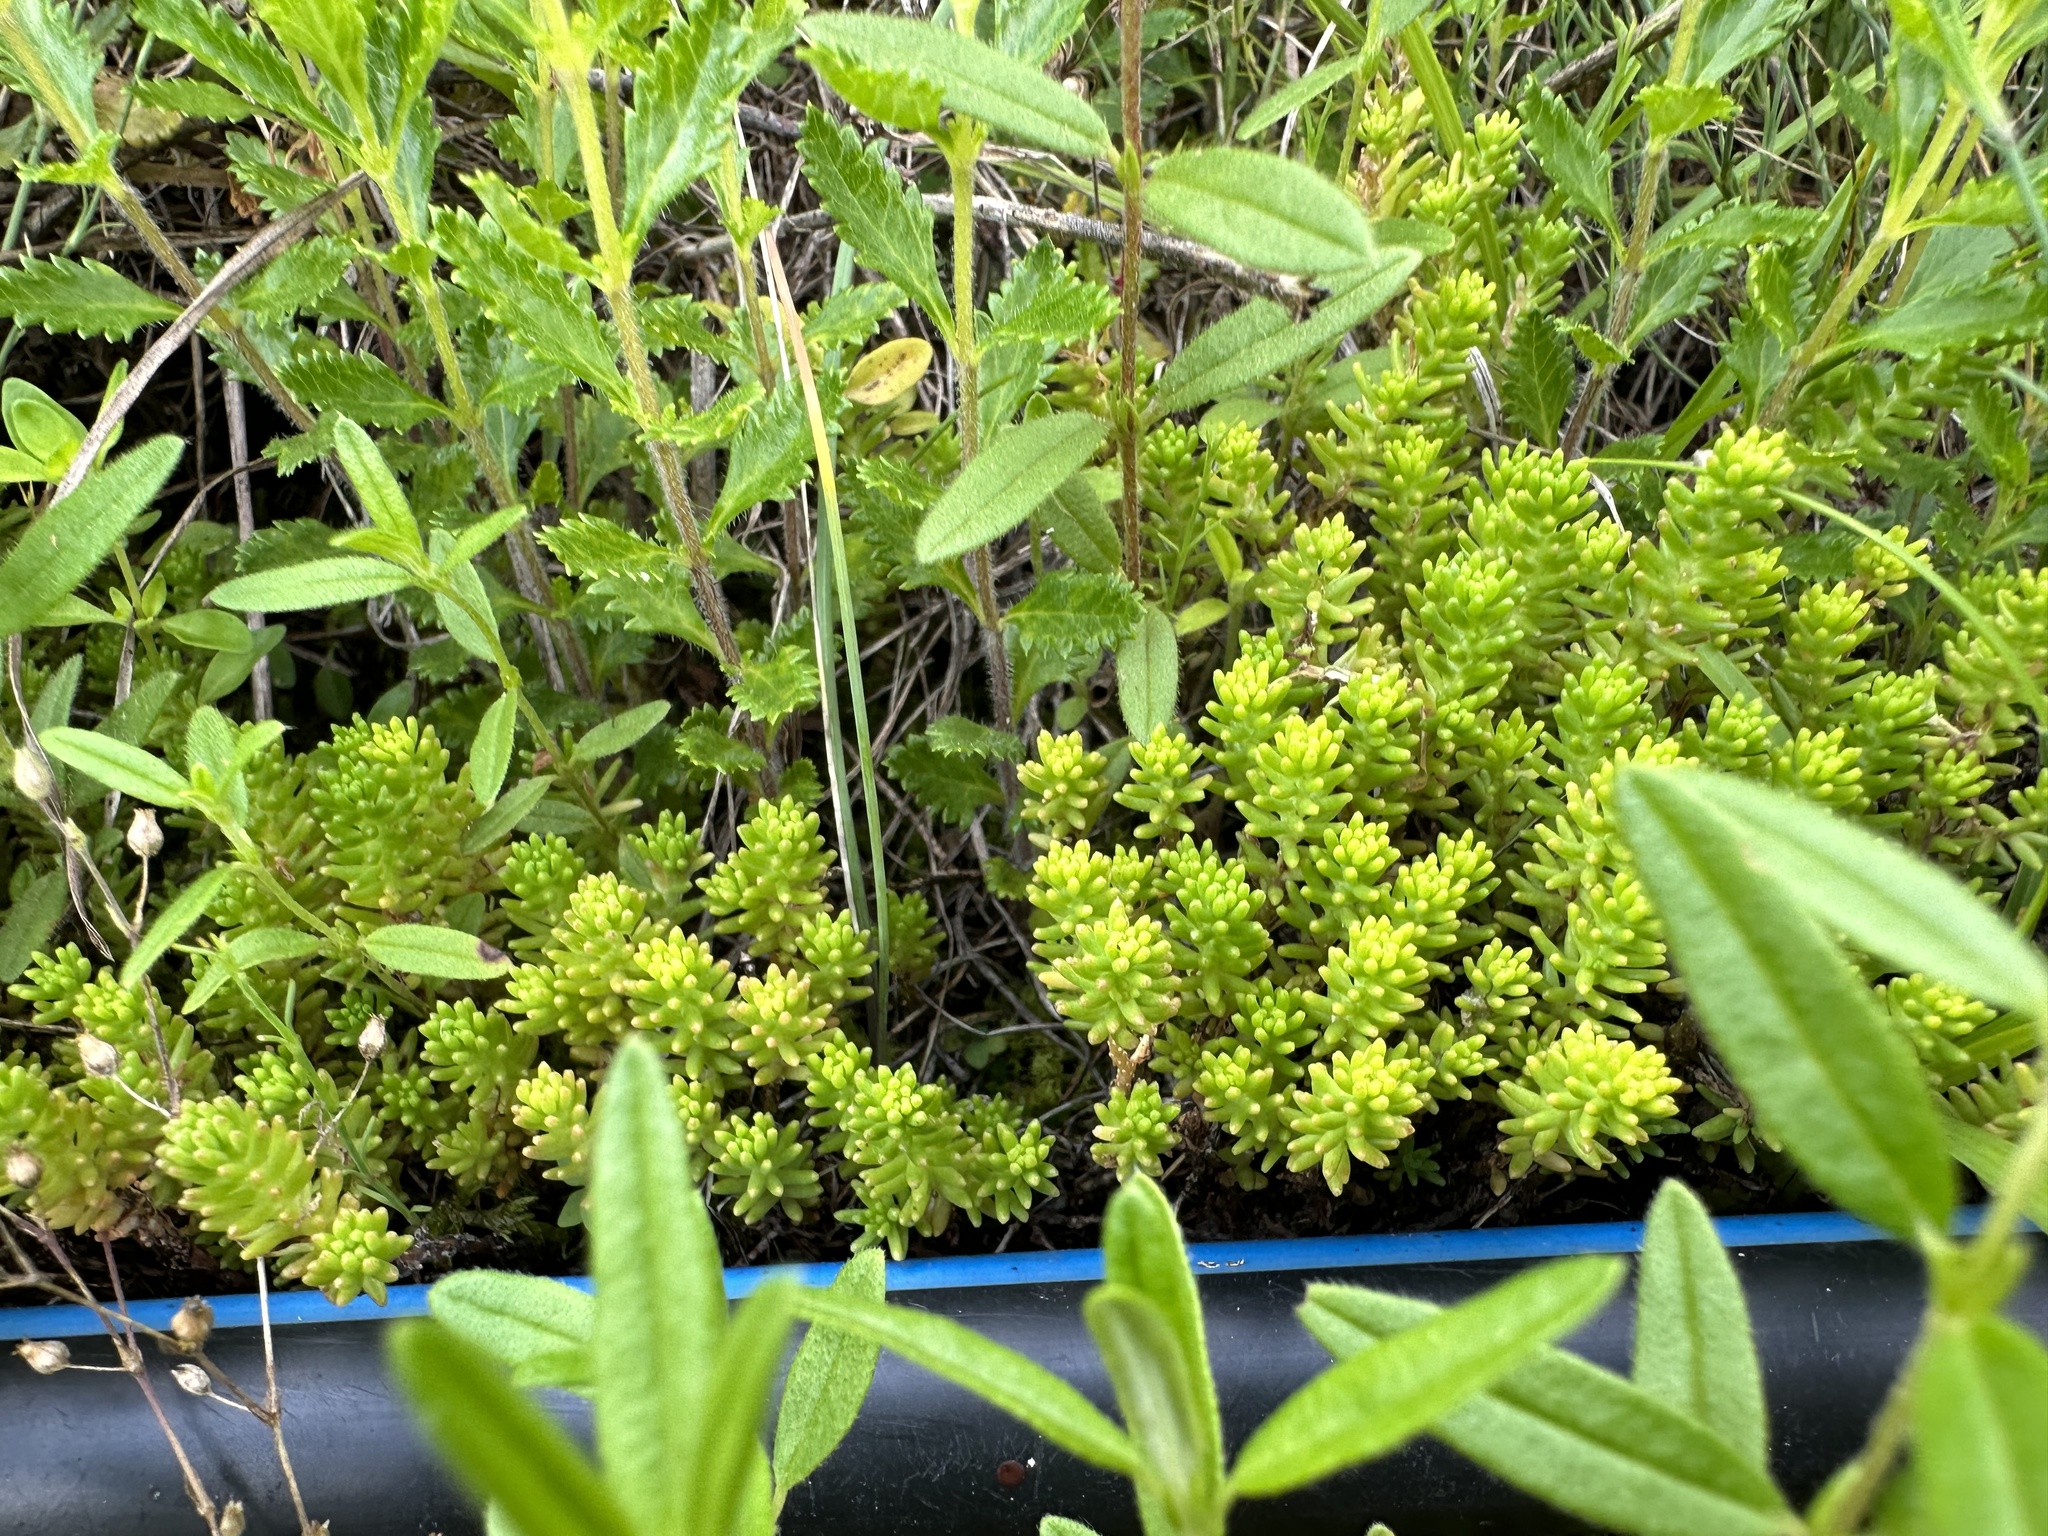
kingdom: Plantae
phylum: Tracheophyta
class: Magnoliopsida
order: Saxifragales
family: Crassulaceae
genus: Sedum
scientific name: Sedum sexangulare
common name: Tasteless stonecrop
